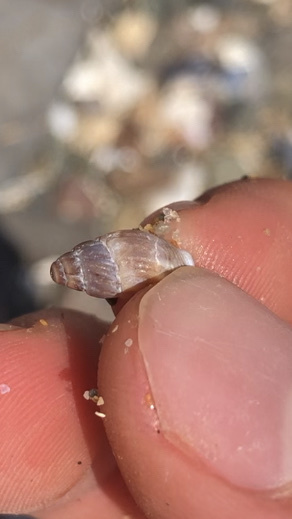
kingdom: Animalia
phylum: Mollusca
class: Gastropoda
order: Neogastropoda
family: Columbellidae
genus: Amphissa
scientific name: Amphissa versicolor
